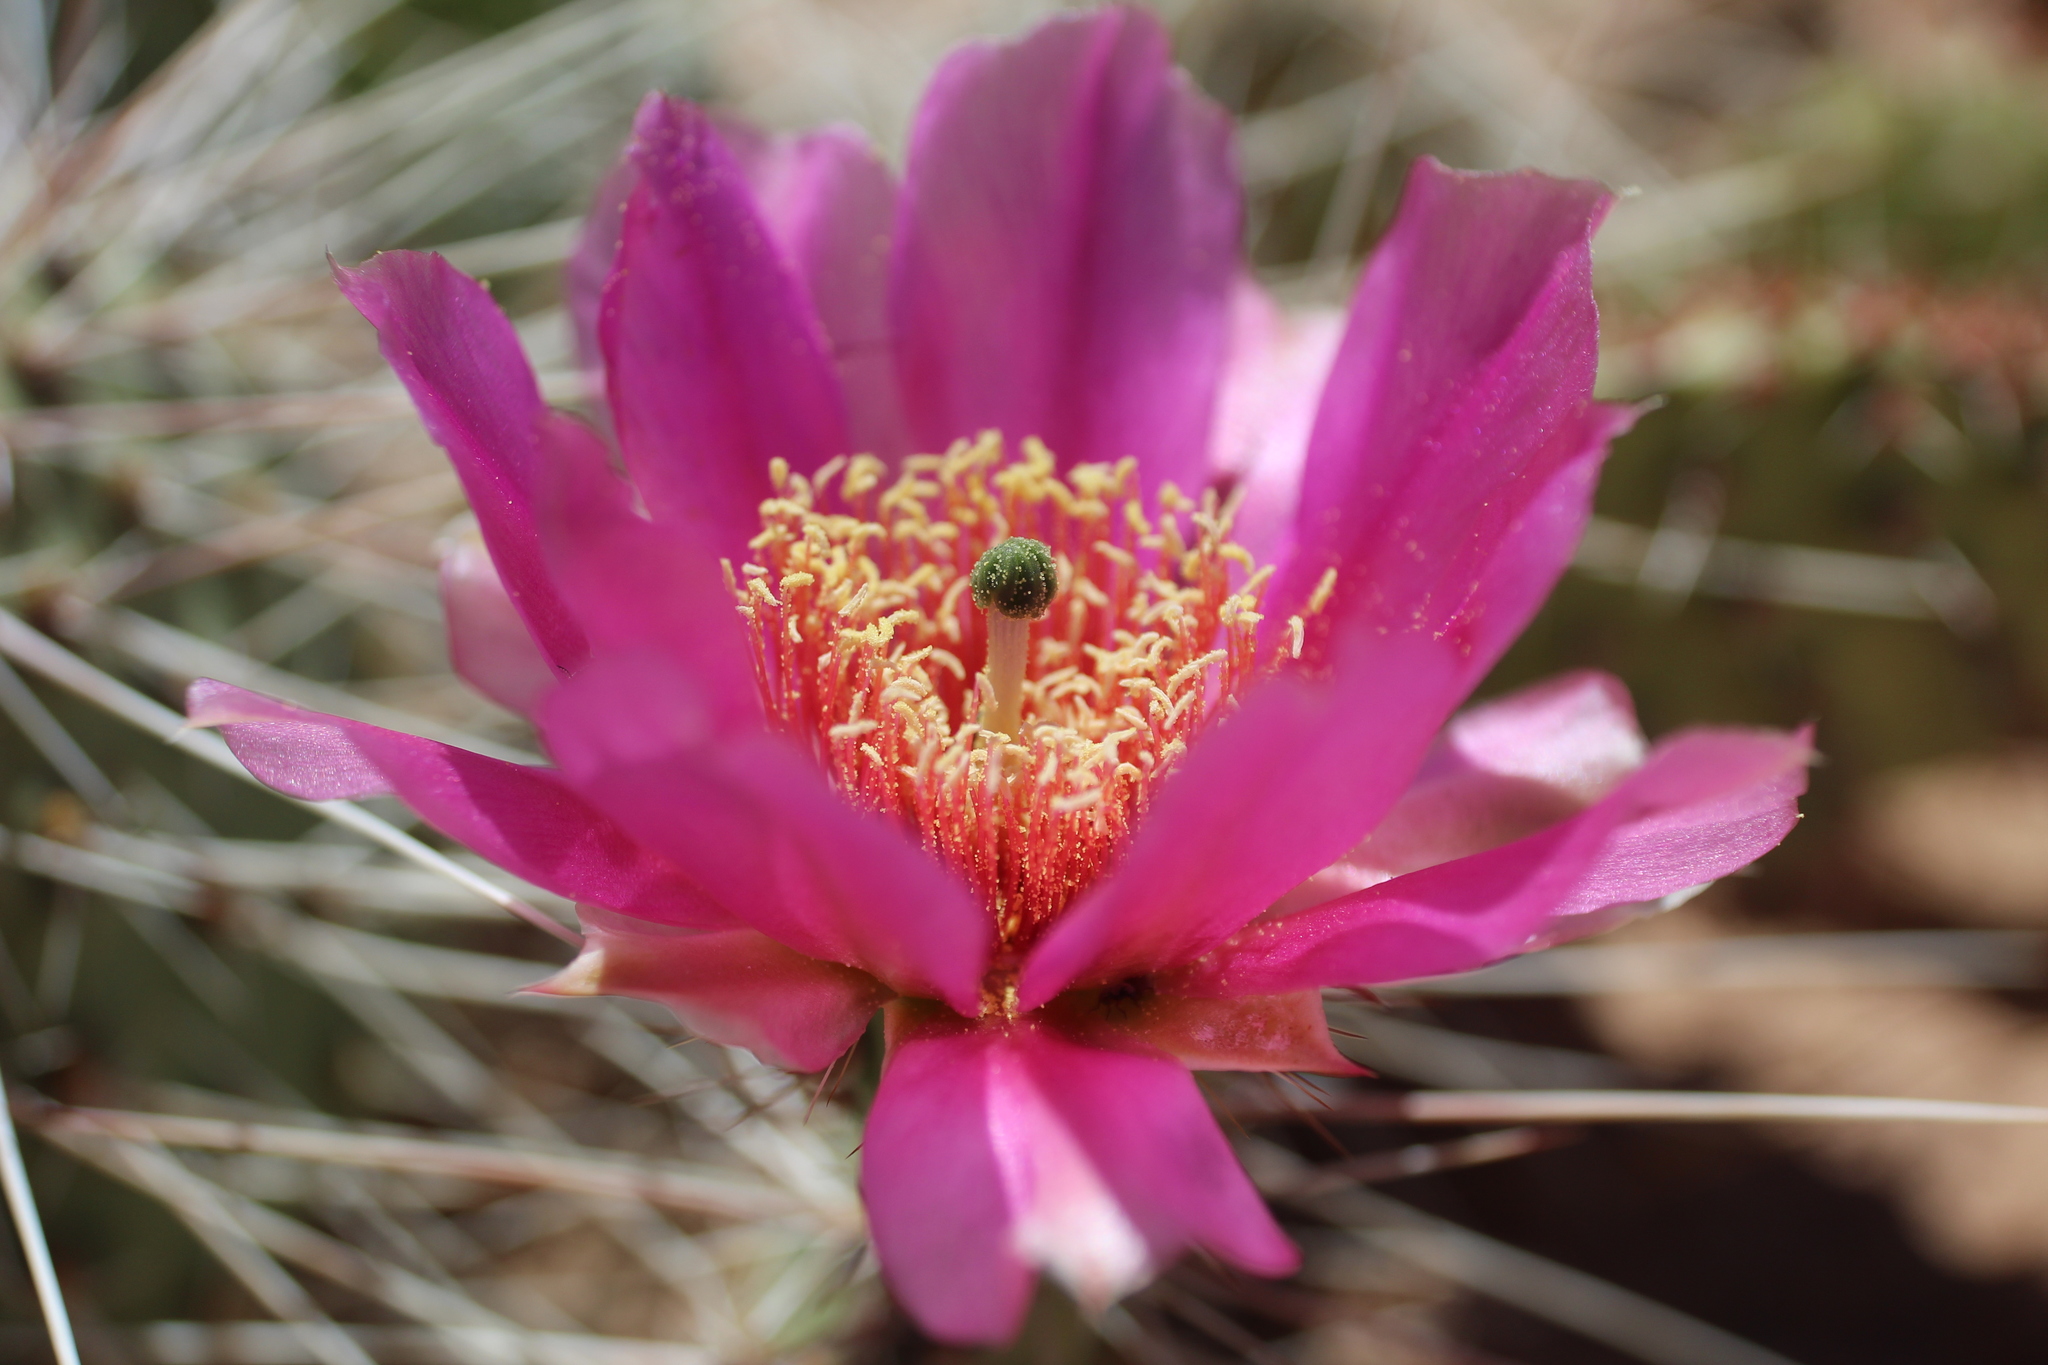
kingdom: Plantae
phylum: Tracheophyta
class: Magnoliopsida
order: Caryophyllales
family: Cactaceae
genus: Opuntia
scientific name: Opuntia polyacantha
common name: Plains prickly-pear
